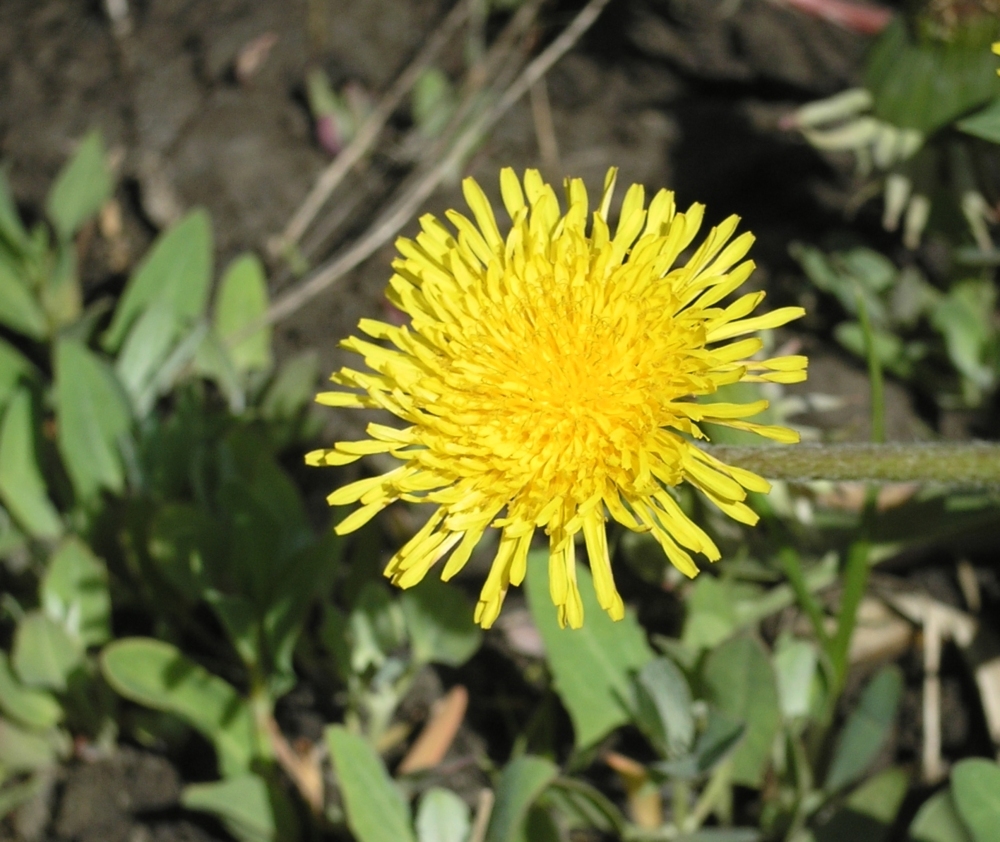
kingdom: Plantae
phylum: Tracheophyta
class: Magnoliopsida
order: Asterales
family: Asteraceae
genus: Taraxacum
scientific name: Taraxacum officinale
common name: Common dandelion
